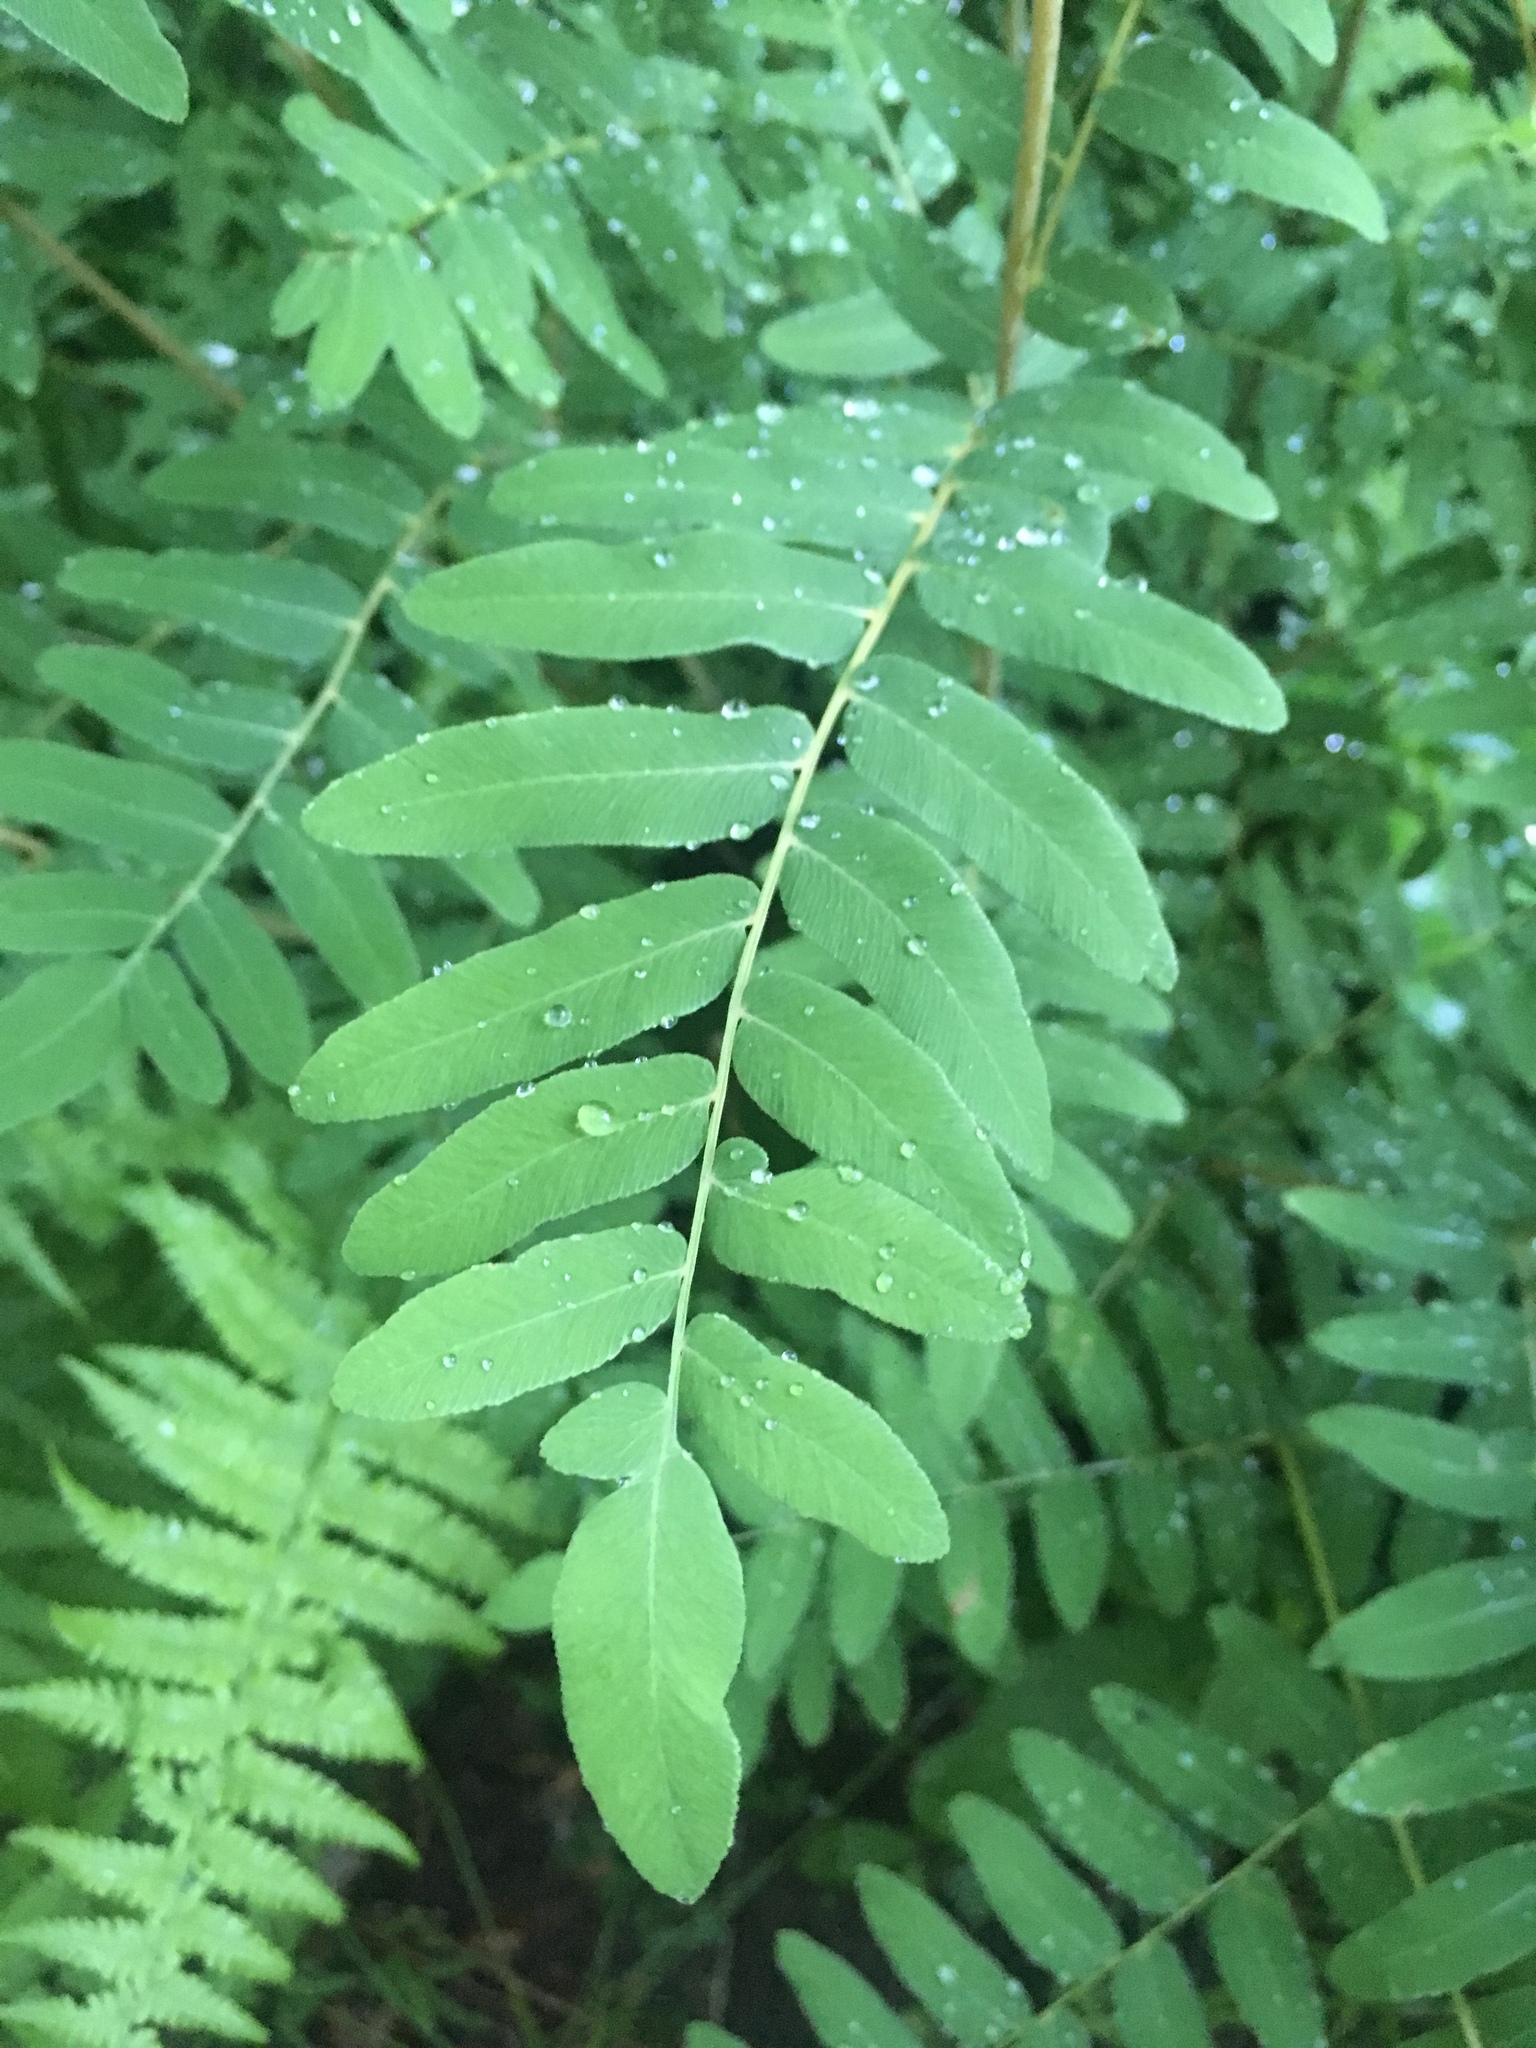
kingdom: Plantae
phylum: Tracheophyta
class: Polypodiopsida
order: Osmundales
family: Osmundaceae
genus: Osmunda
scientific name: Osmunda spectabilis
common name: American royal fern
